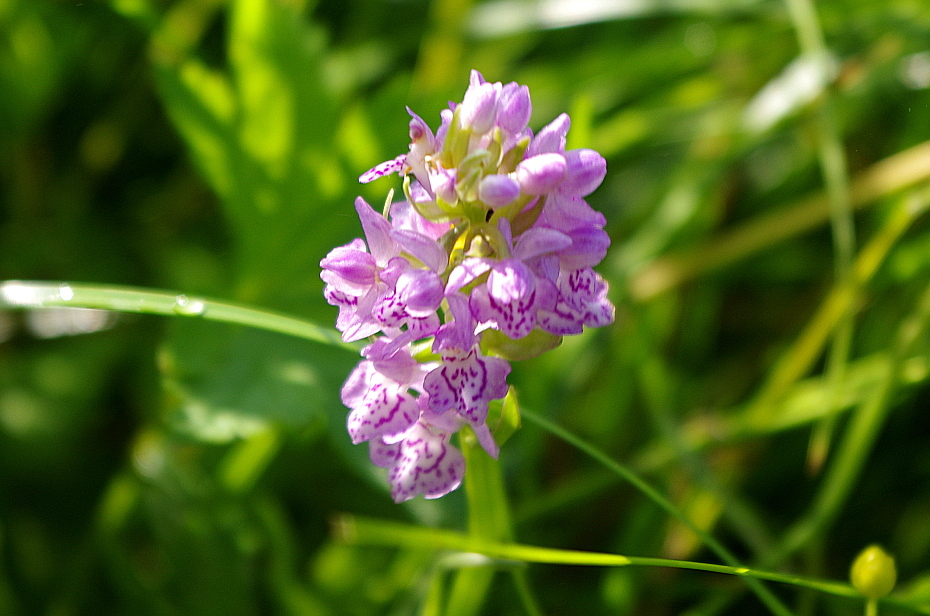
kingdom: Plantae
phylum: Tracheophyta
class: Liliopsida
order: Asparagales
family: Orchidaceae
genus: Dactylorhiza
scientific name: Dactylorhiza majalis
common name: Marsh orchid
